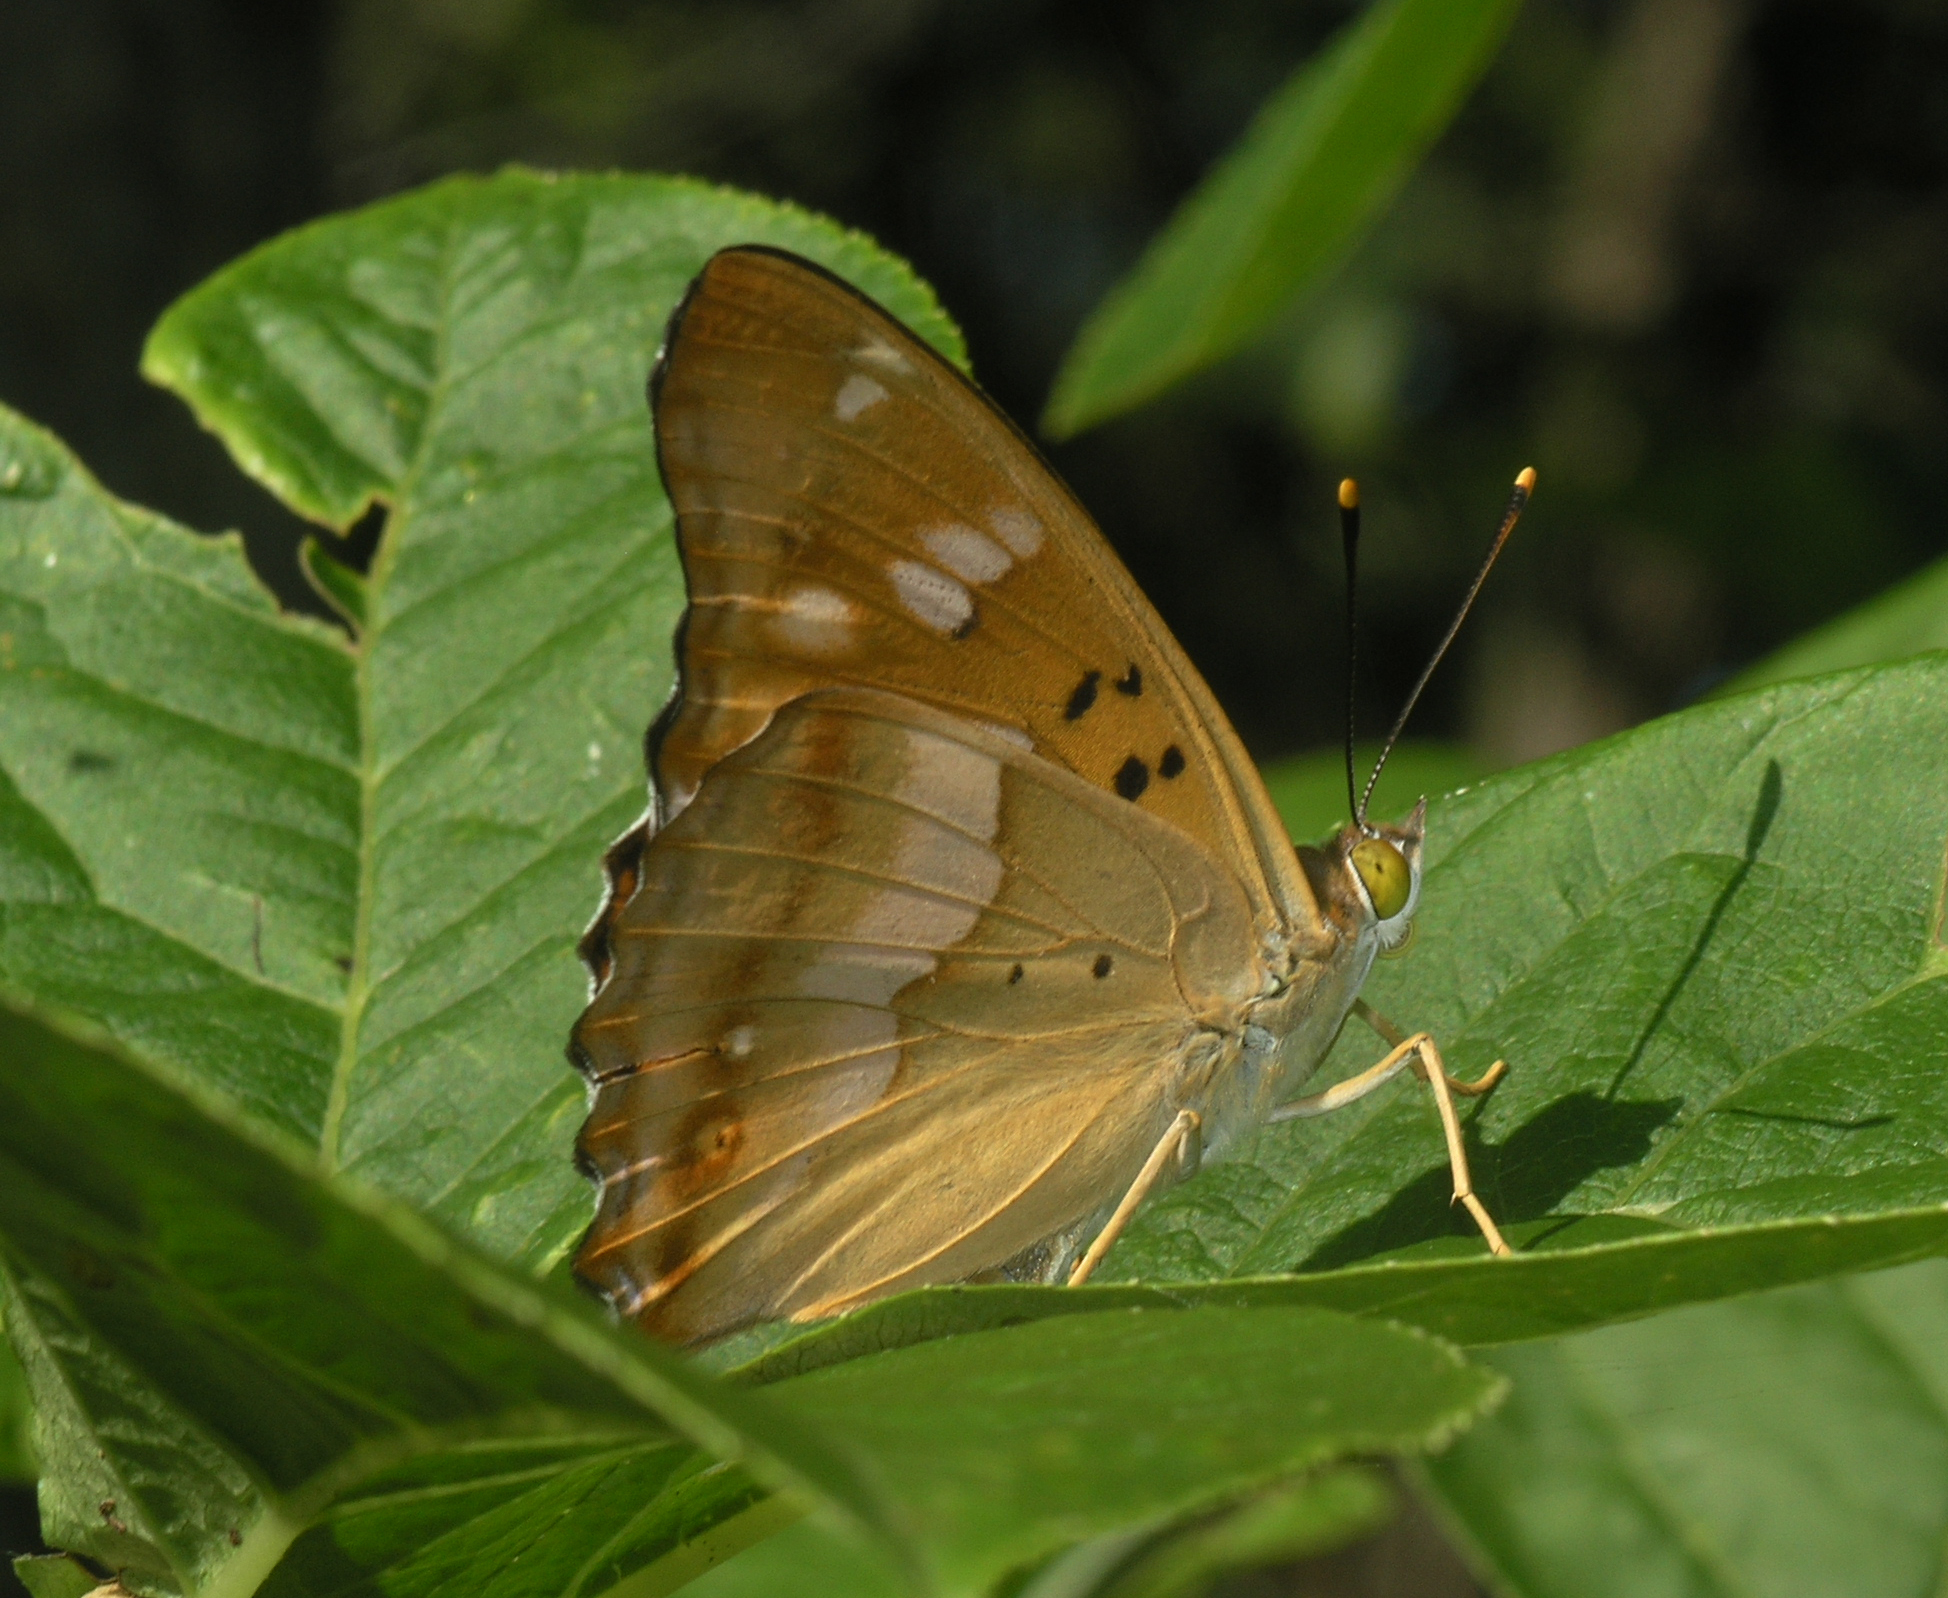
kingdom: Animalia
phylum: Arthropoda
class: Insecta
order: Lepidoptera
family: Nymphalidae
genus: Apatura
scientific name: Apatura ilia
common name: Lesser purple emperor
